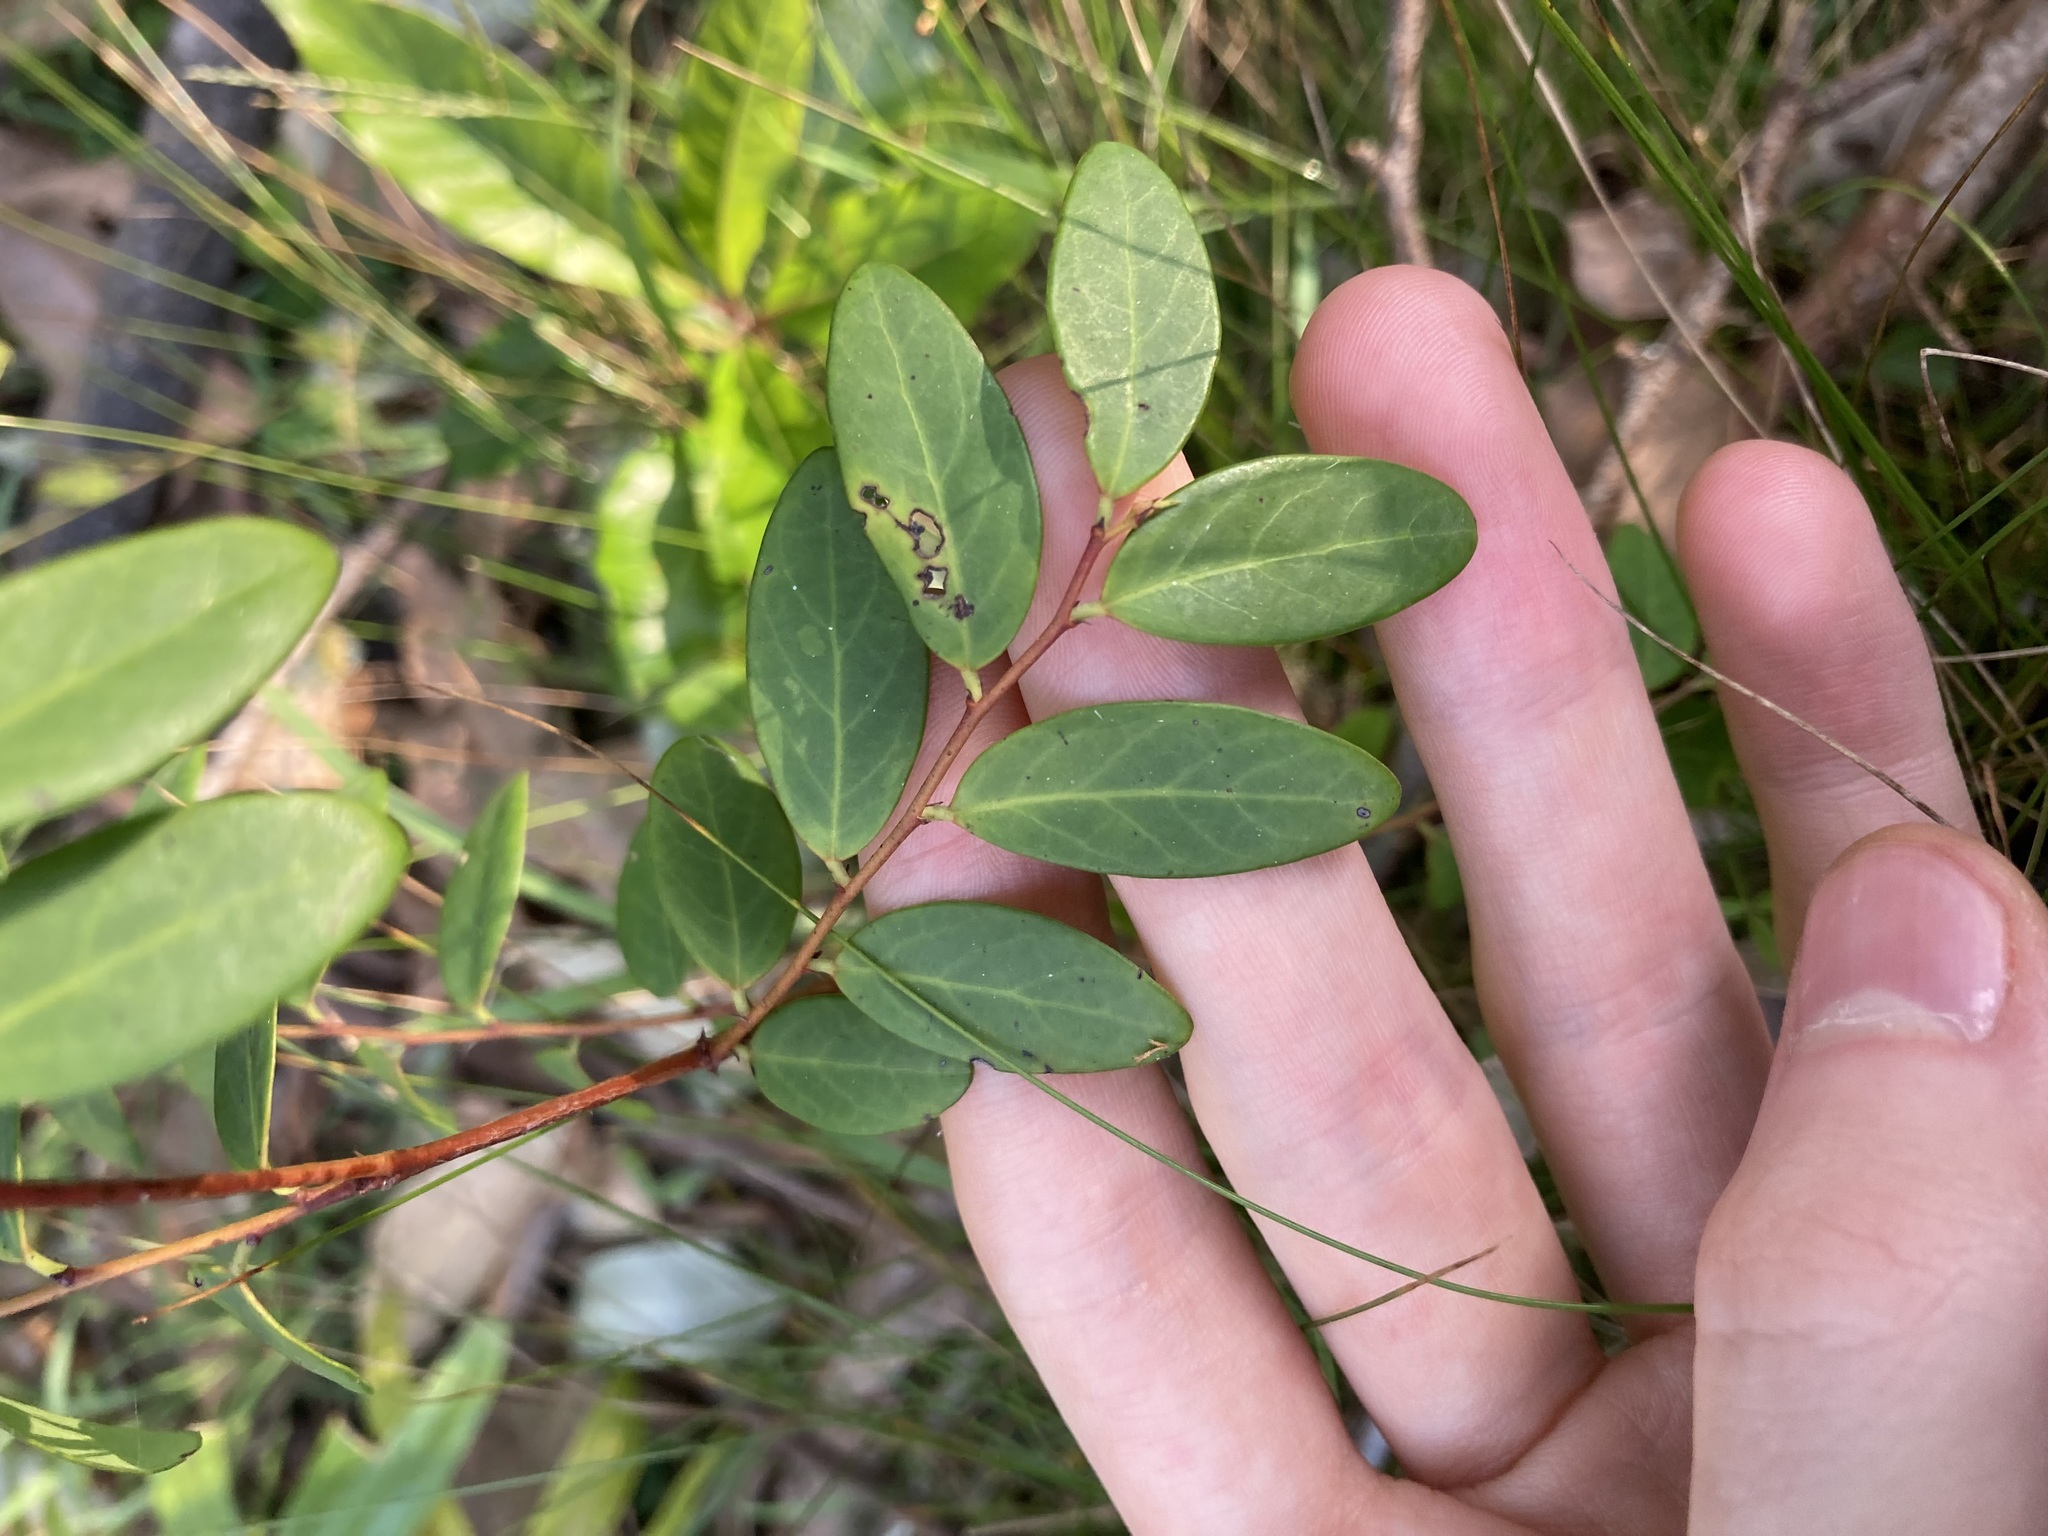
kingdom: Plantae
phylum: Tracheophyta
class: Magnoliopsida
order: Malpighiales
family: Phyllanthaceae
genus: Breynia
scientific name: Breynia oblongifolia
